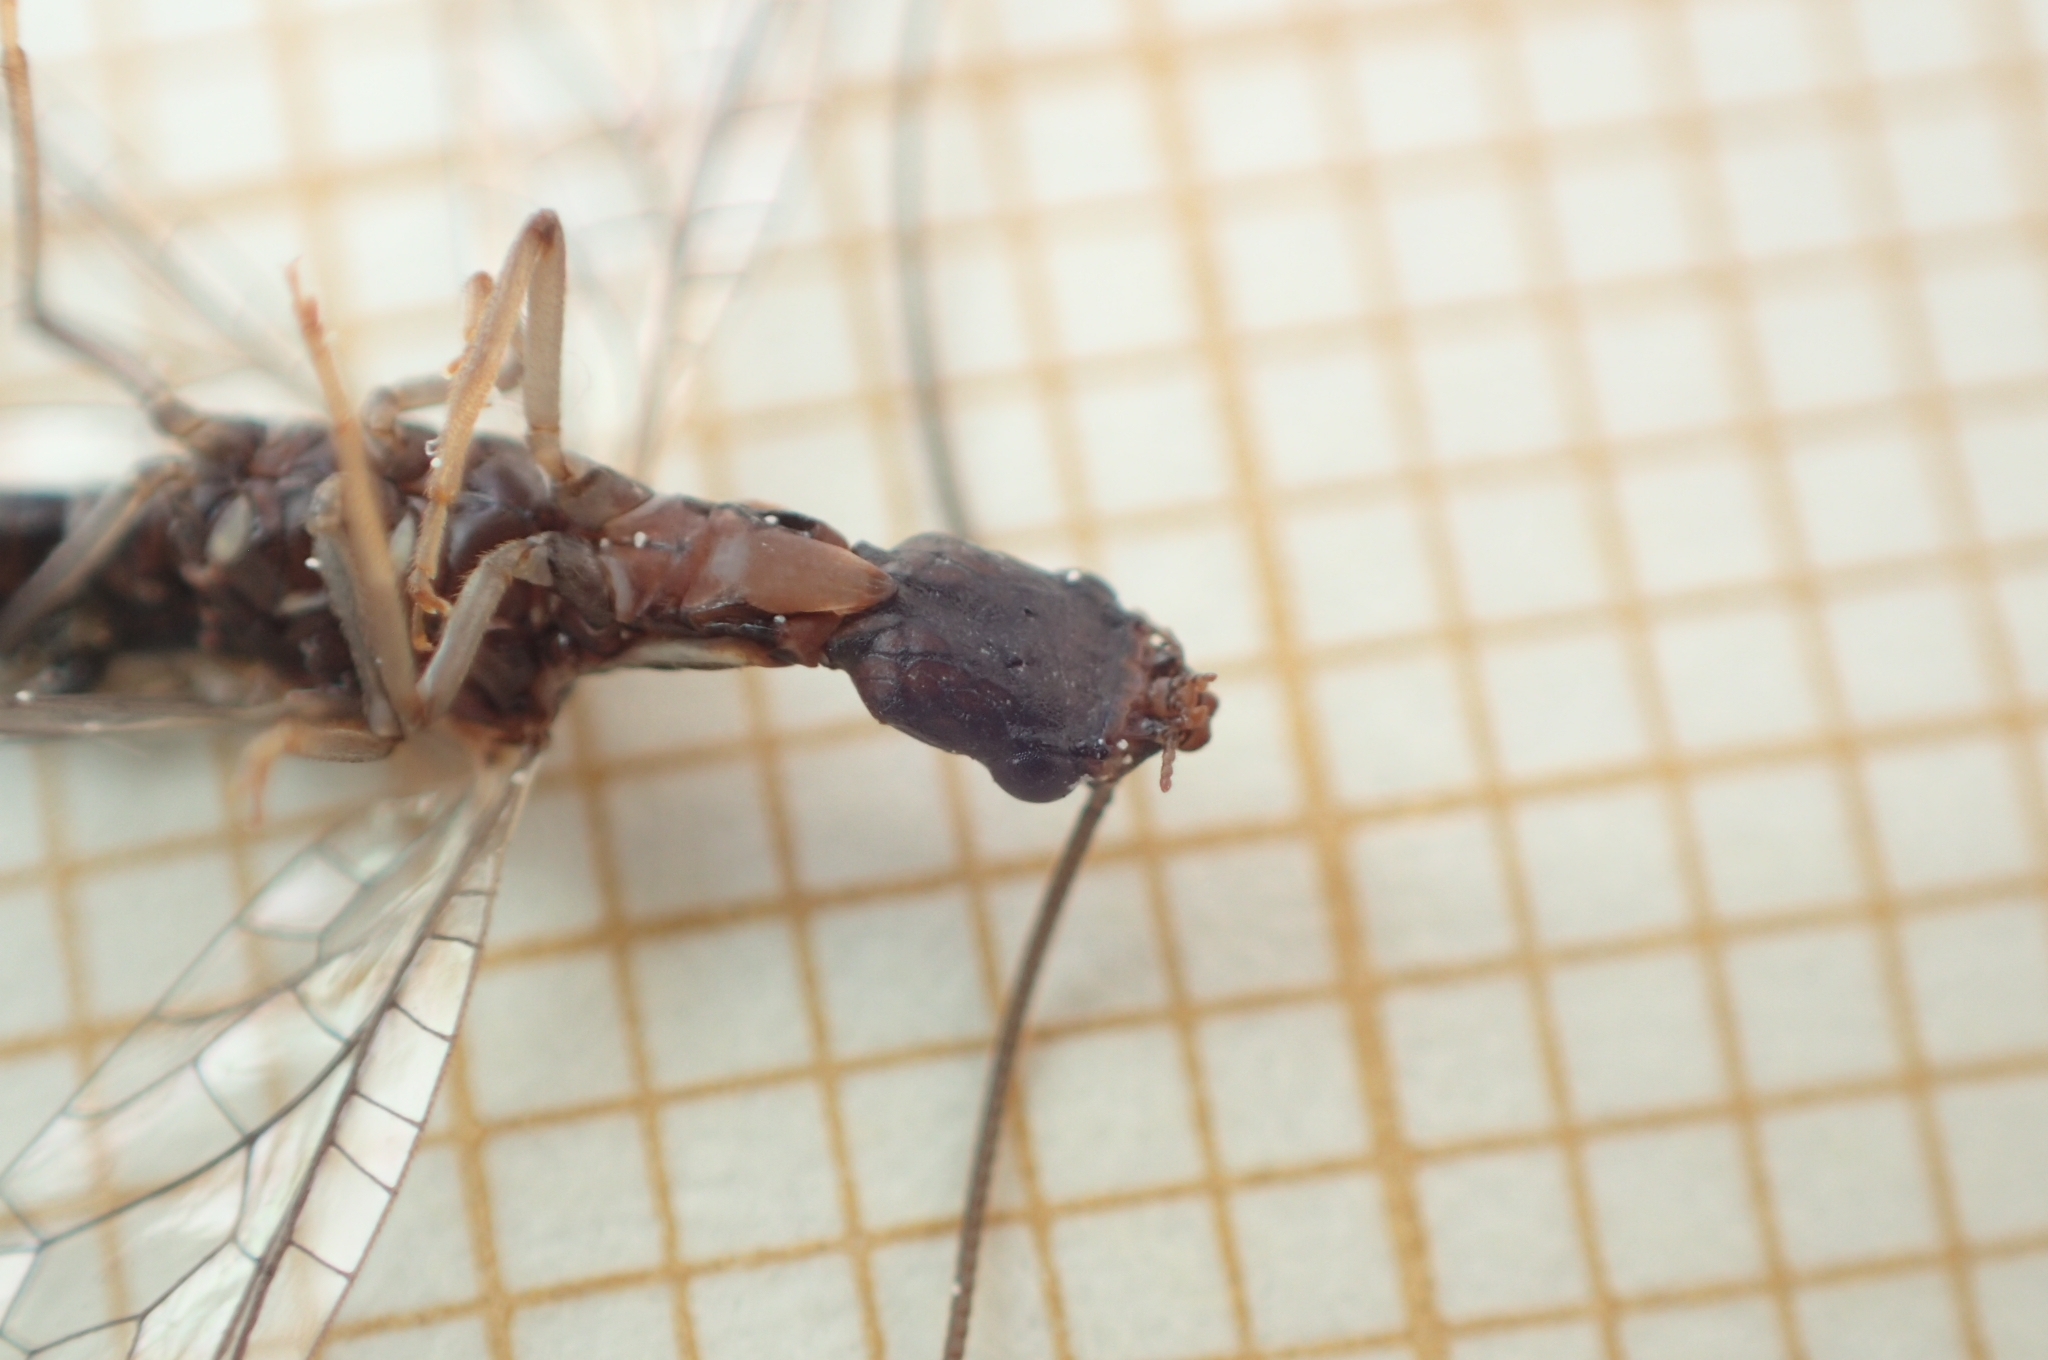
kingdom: Animalia
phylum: Arthropoda
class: Insecta
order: Raphidioptera
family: Inocelliidae
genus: Fibla
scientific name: Fibla hesperica
